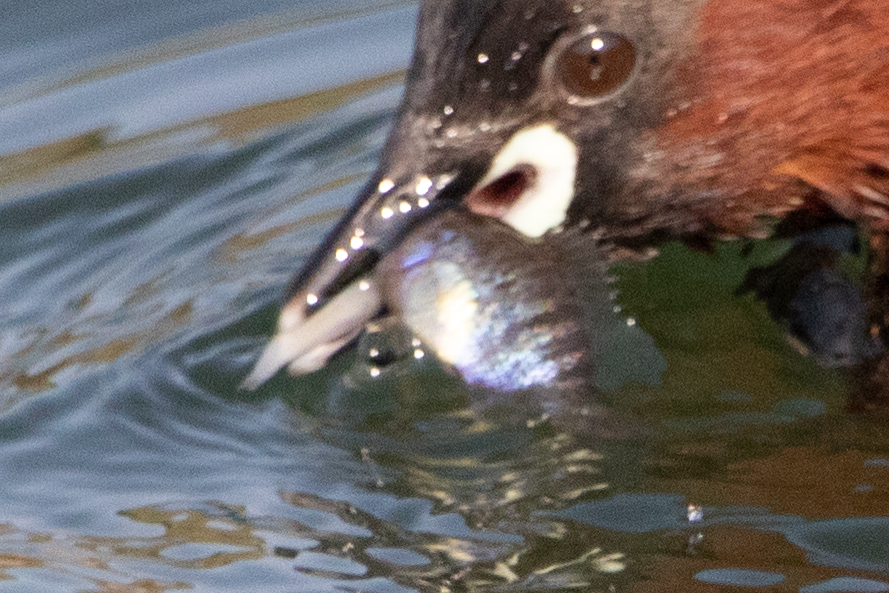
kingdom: Animalia
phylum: Chordata
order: Perciformes
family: Centrarchidae
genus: Lepomis
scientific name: Lepomis gibbosus
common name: Pumpkinseed
